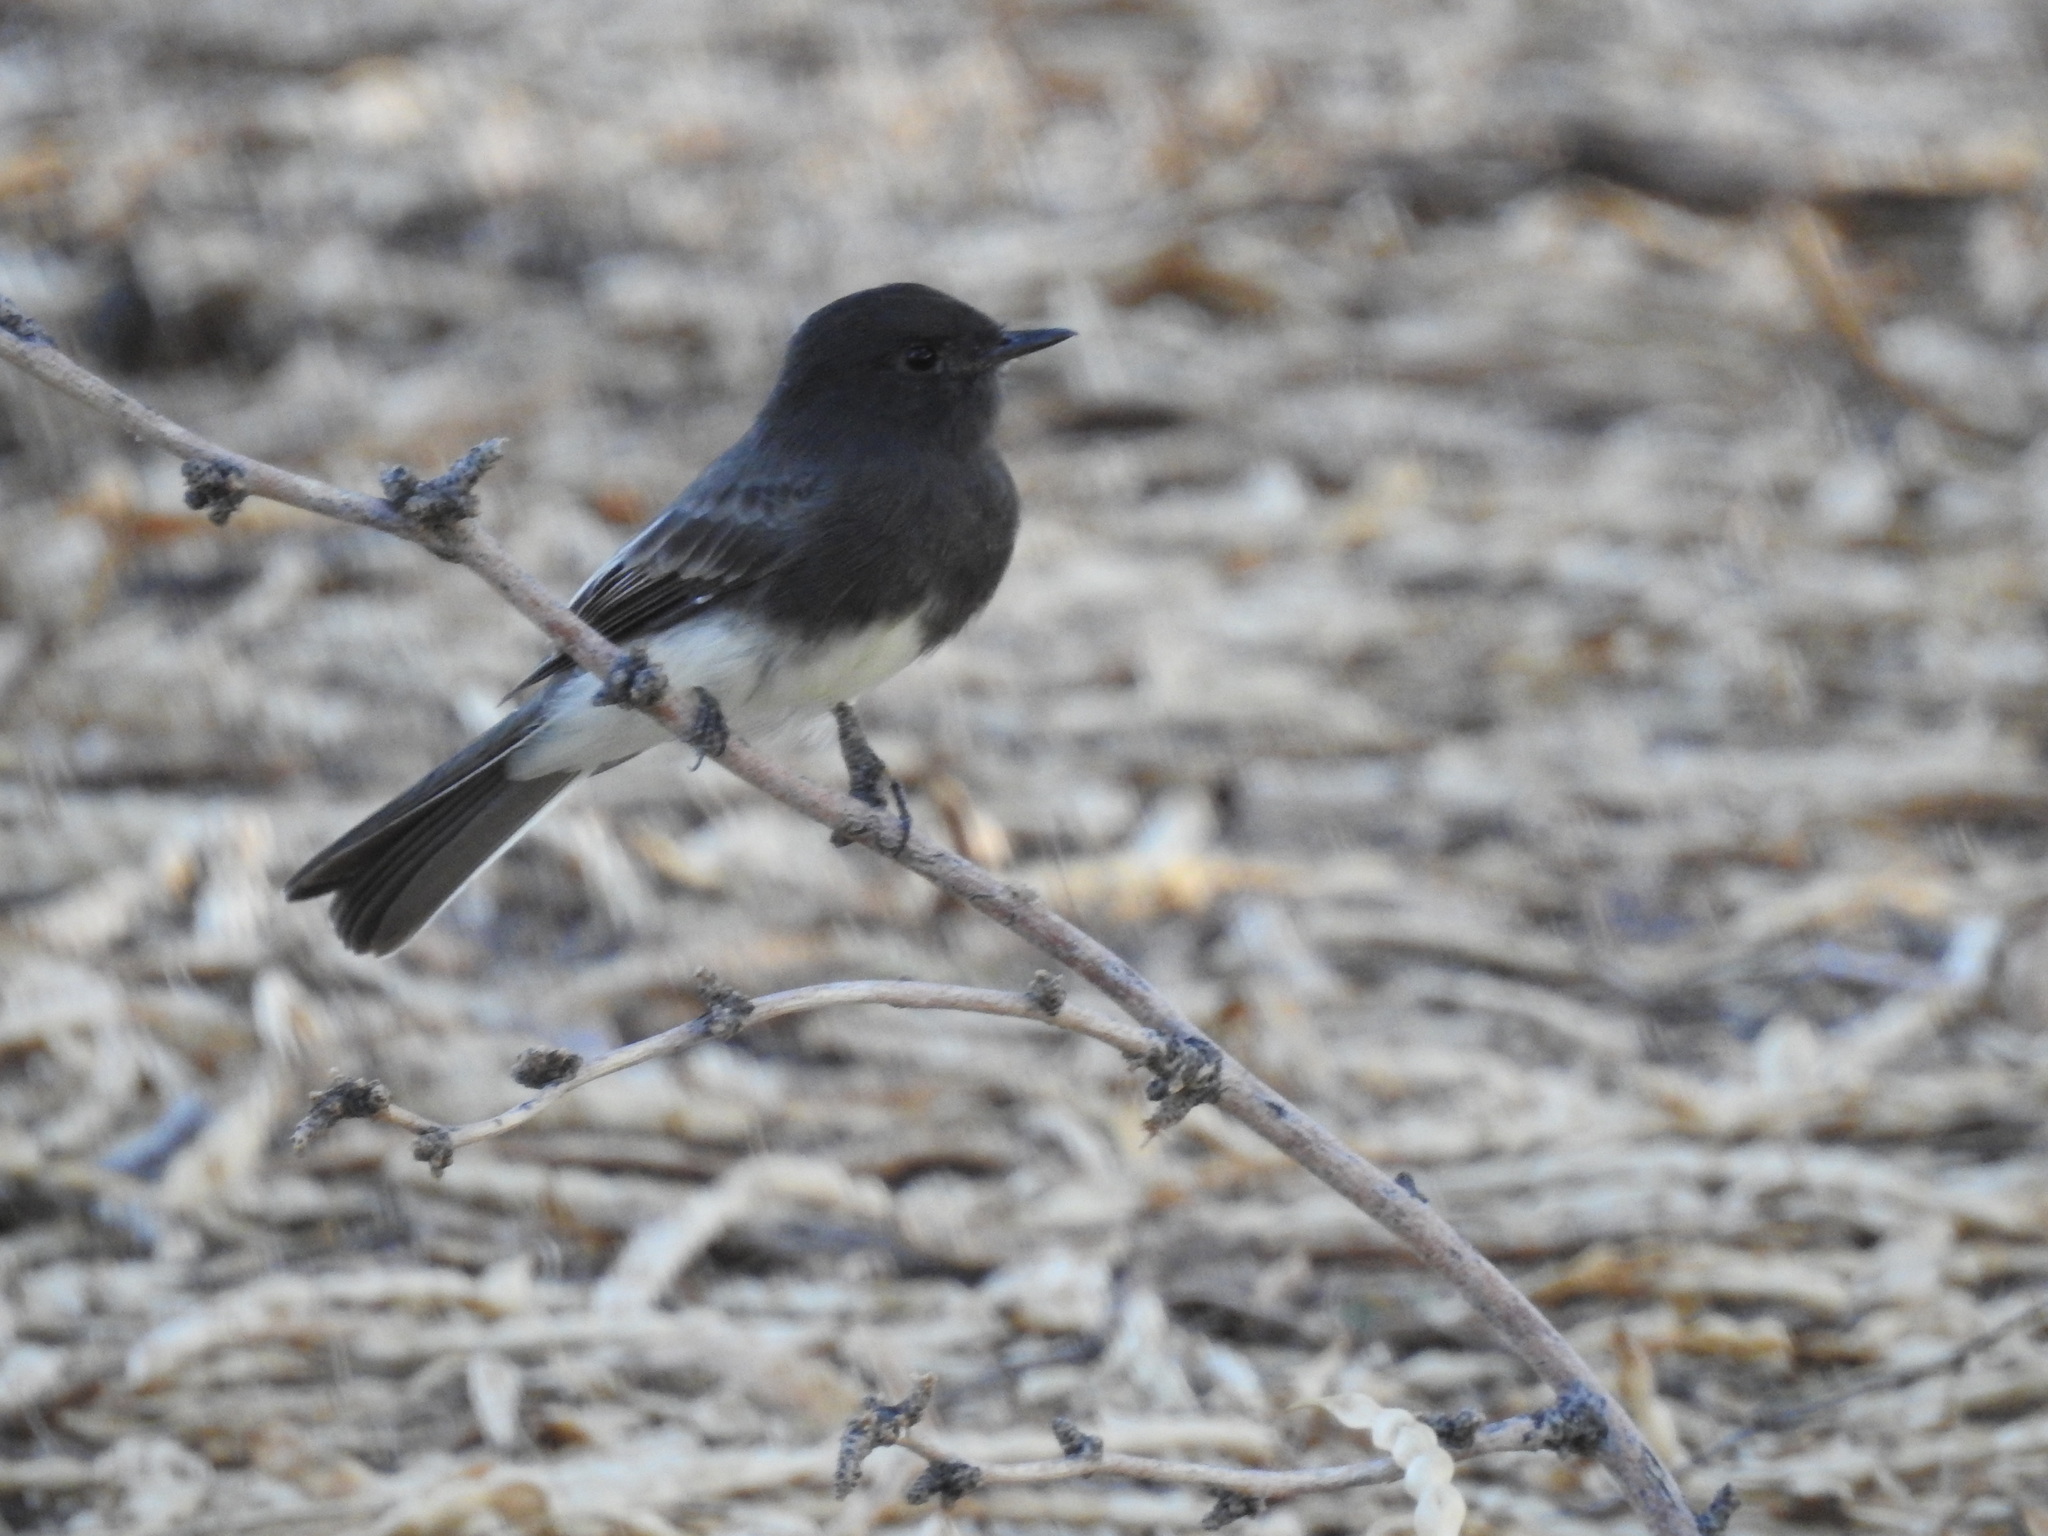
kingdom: Animalia
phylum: Chordata
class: Aves
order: Passeriformes
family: Tyrannidae
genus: Sayornis
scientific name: Sayornis nigricans
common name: Black phoebe
